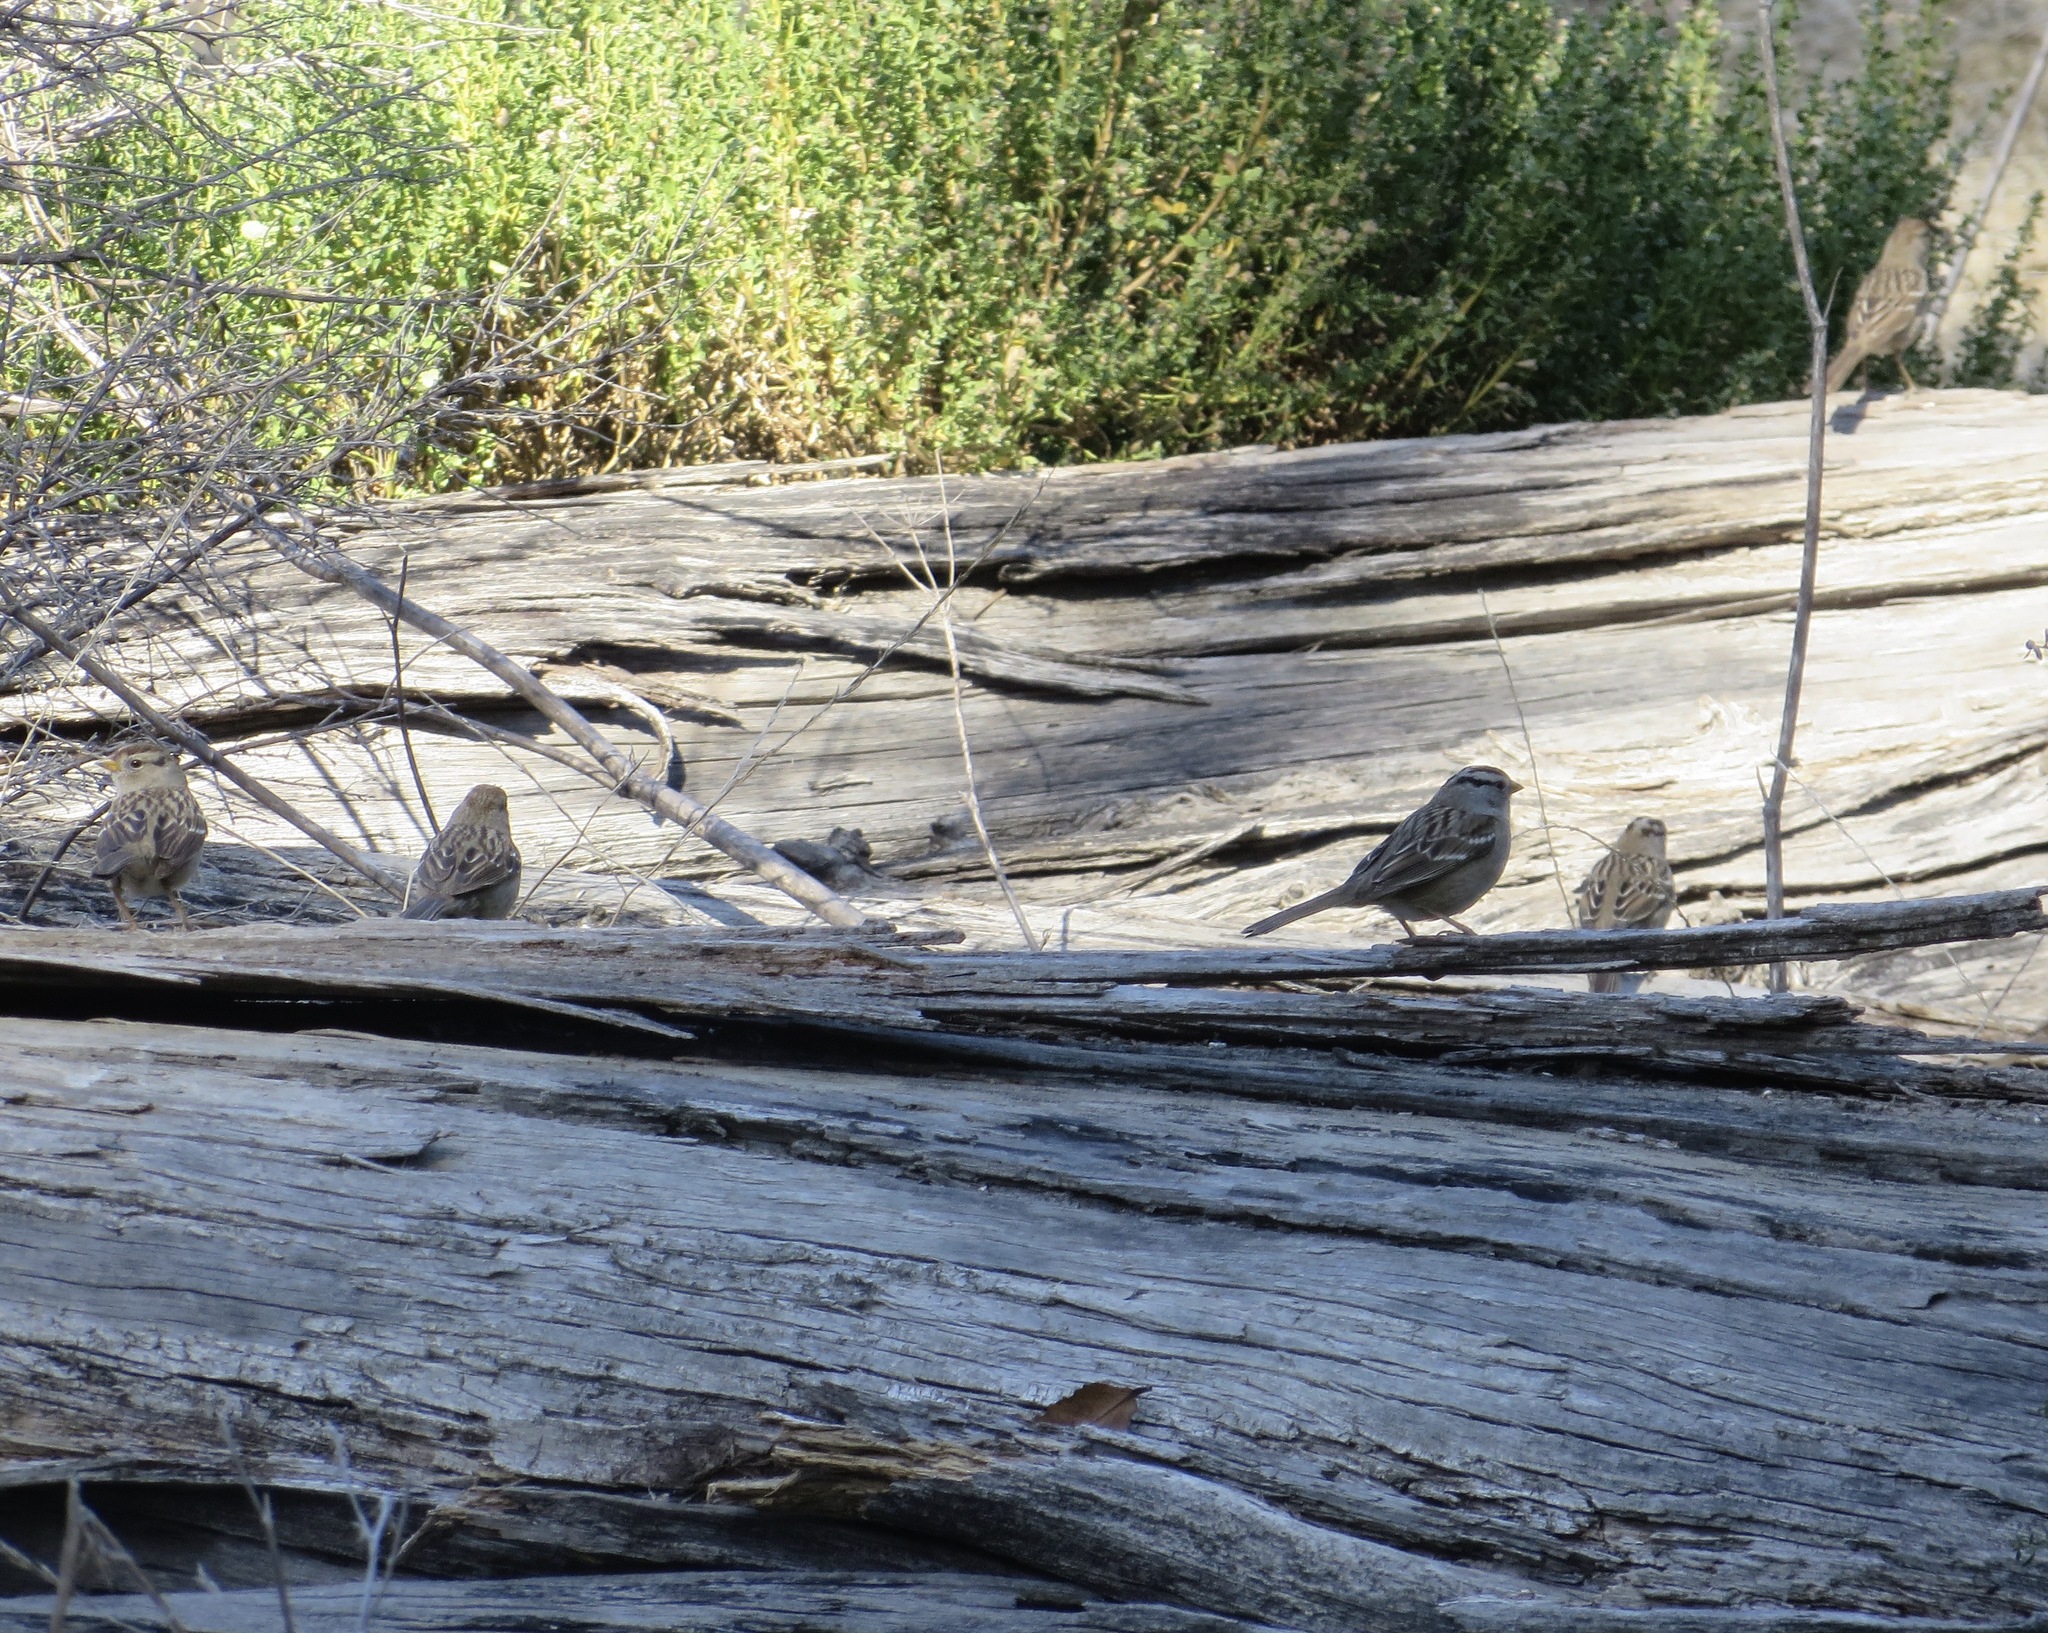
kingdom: Animalia
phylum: Chordata
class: Aves
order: Passeriformes
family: Passerellidae
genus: Zonotrichia
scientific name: Zonotrichia leucophrys
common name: White-crowned sparrow
